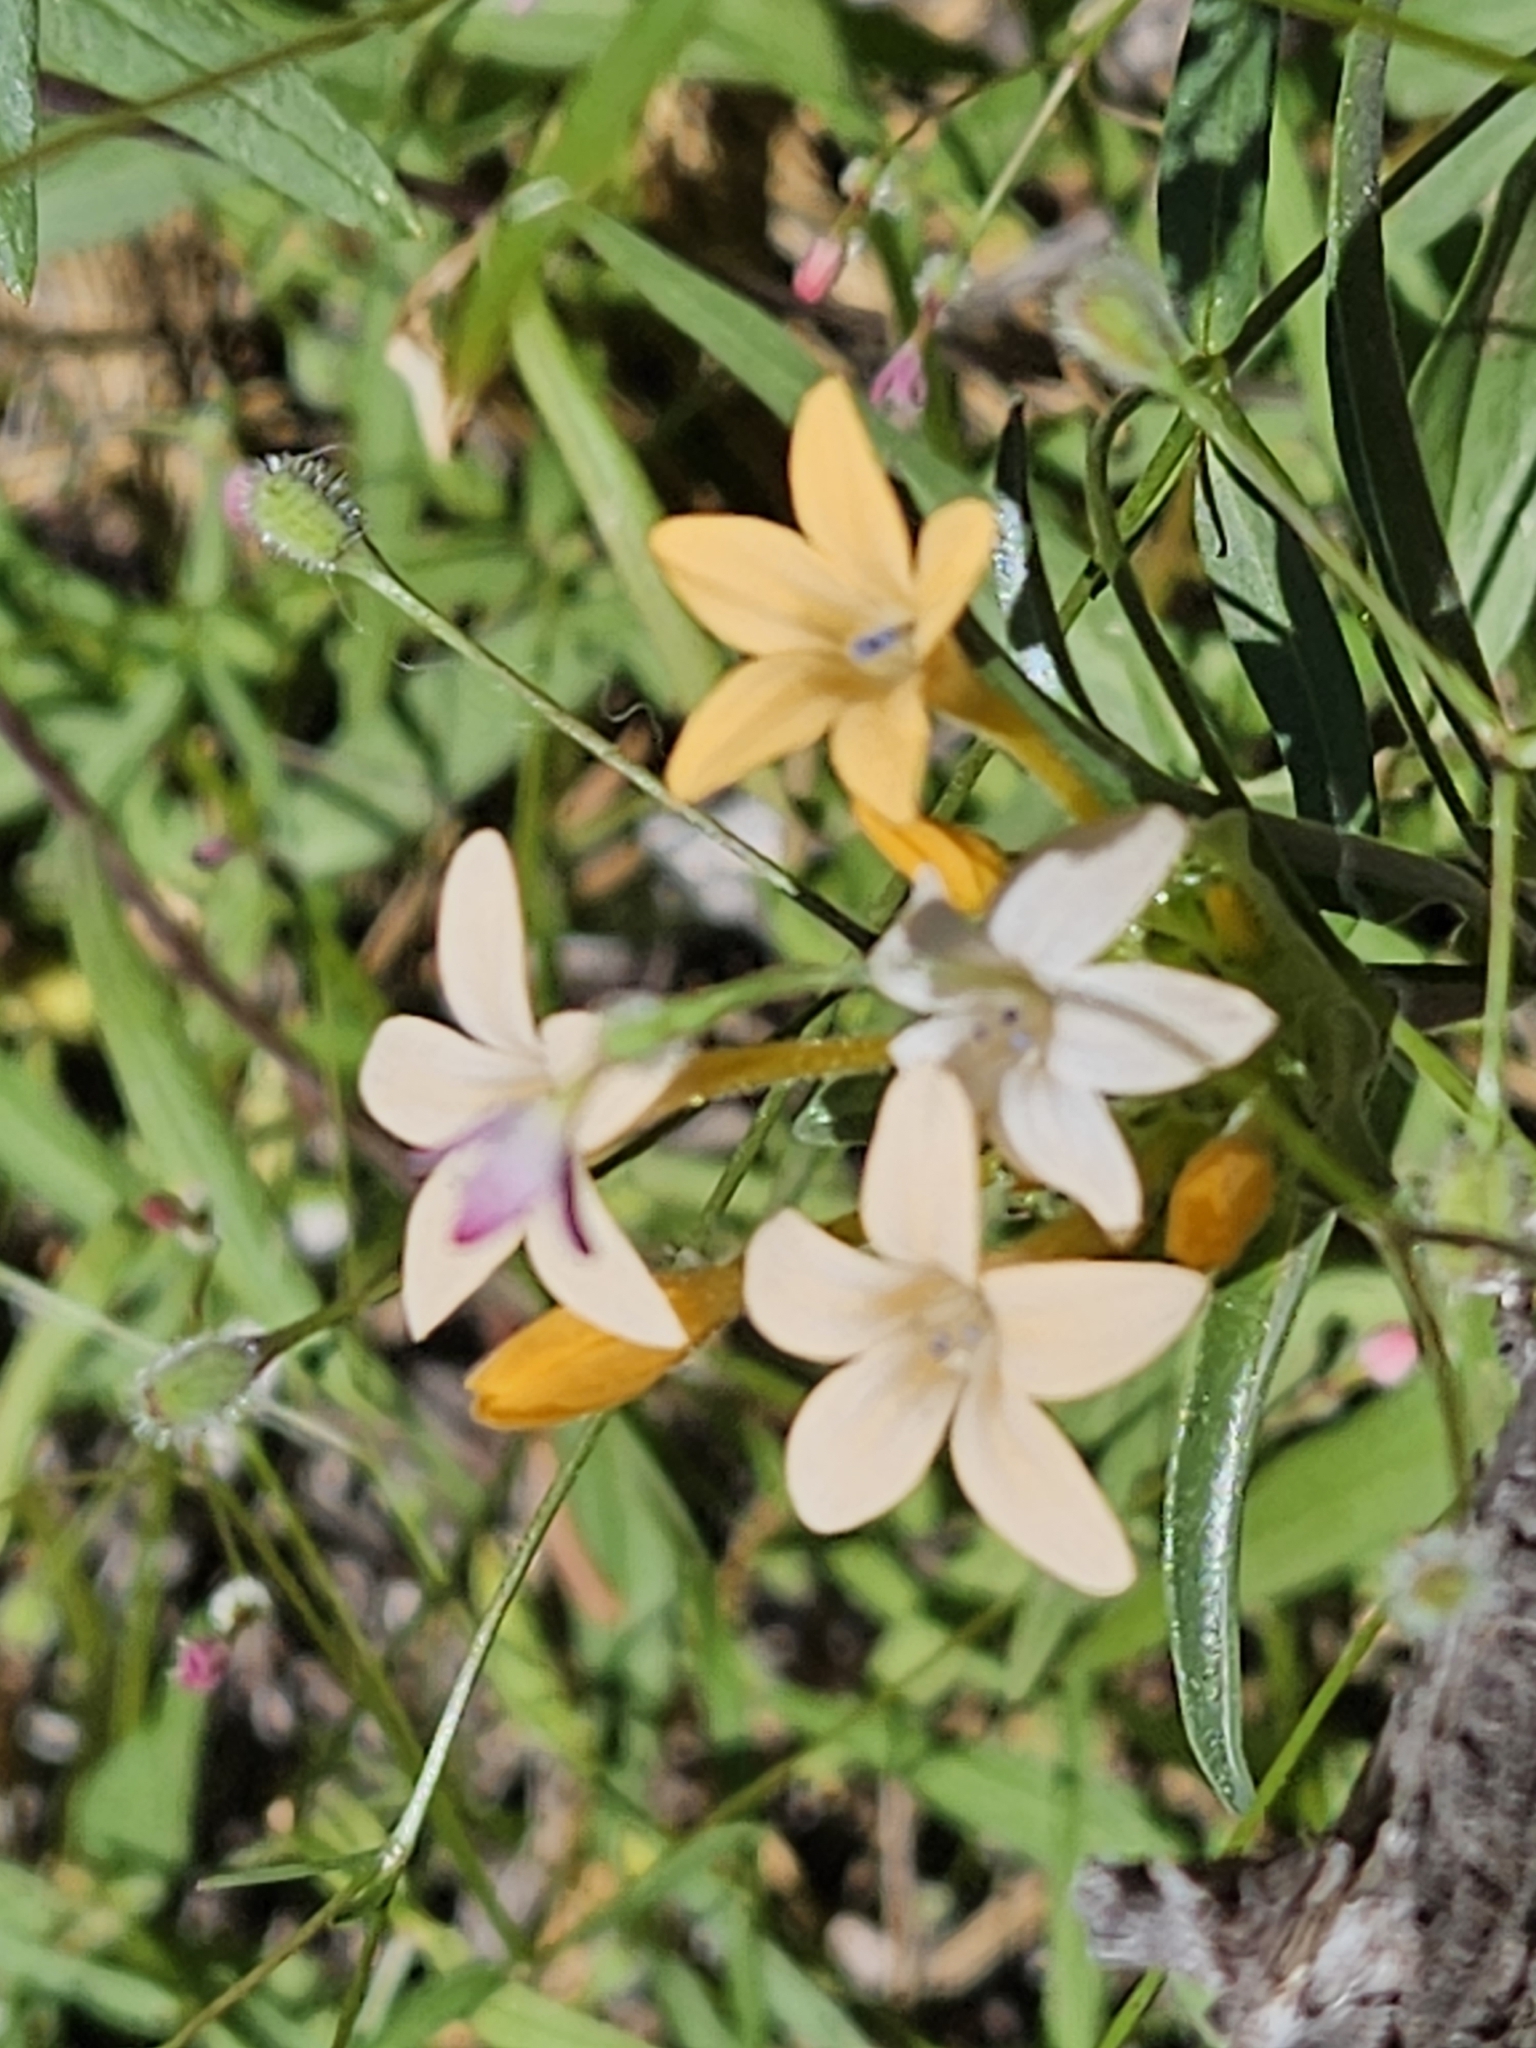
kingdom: Plantae
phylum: Tracheophyta
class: Magnoliopsida
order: Ericales
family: Polemoniaceae
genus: Collomia
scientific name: Collomia grandiflora
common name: California strawflower
